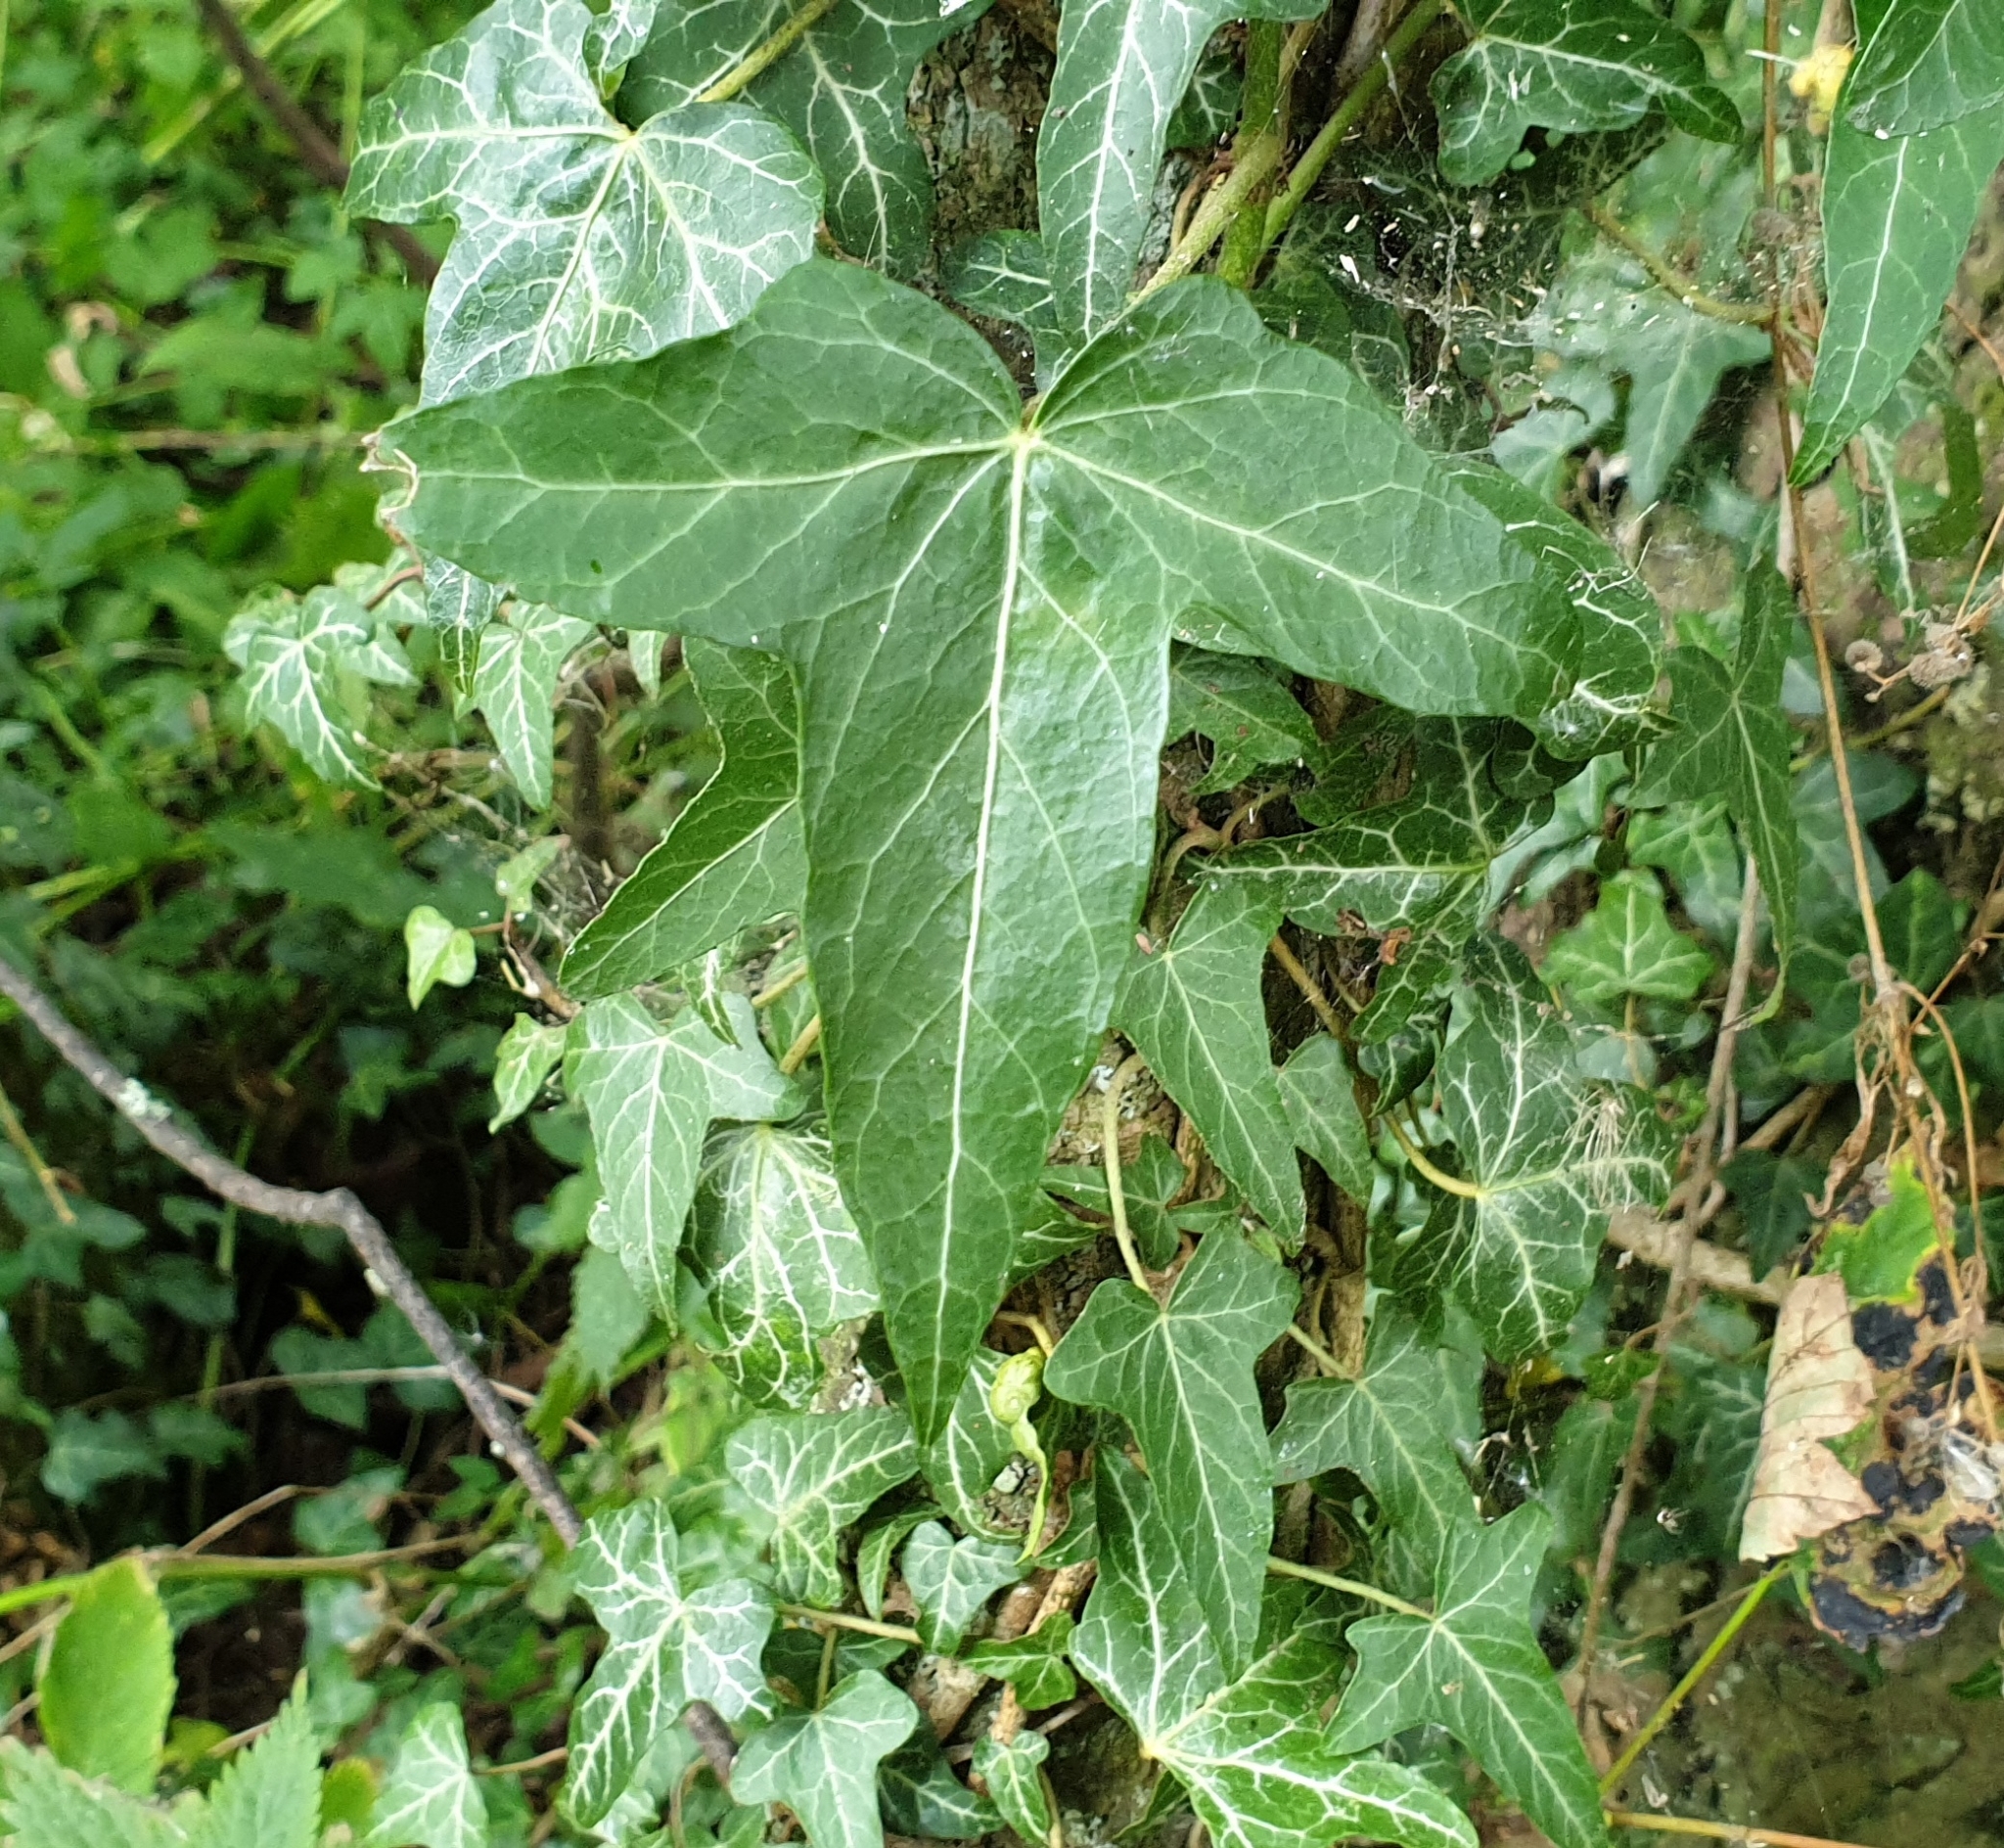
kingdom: Plantae
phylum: Tracheophyta
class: Magnoliopsida
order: Apiales
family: Araliaceae
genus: Hedera
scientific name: Hedera helix
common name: Ivy
